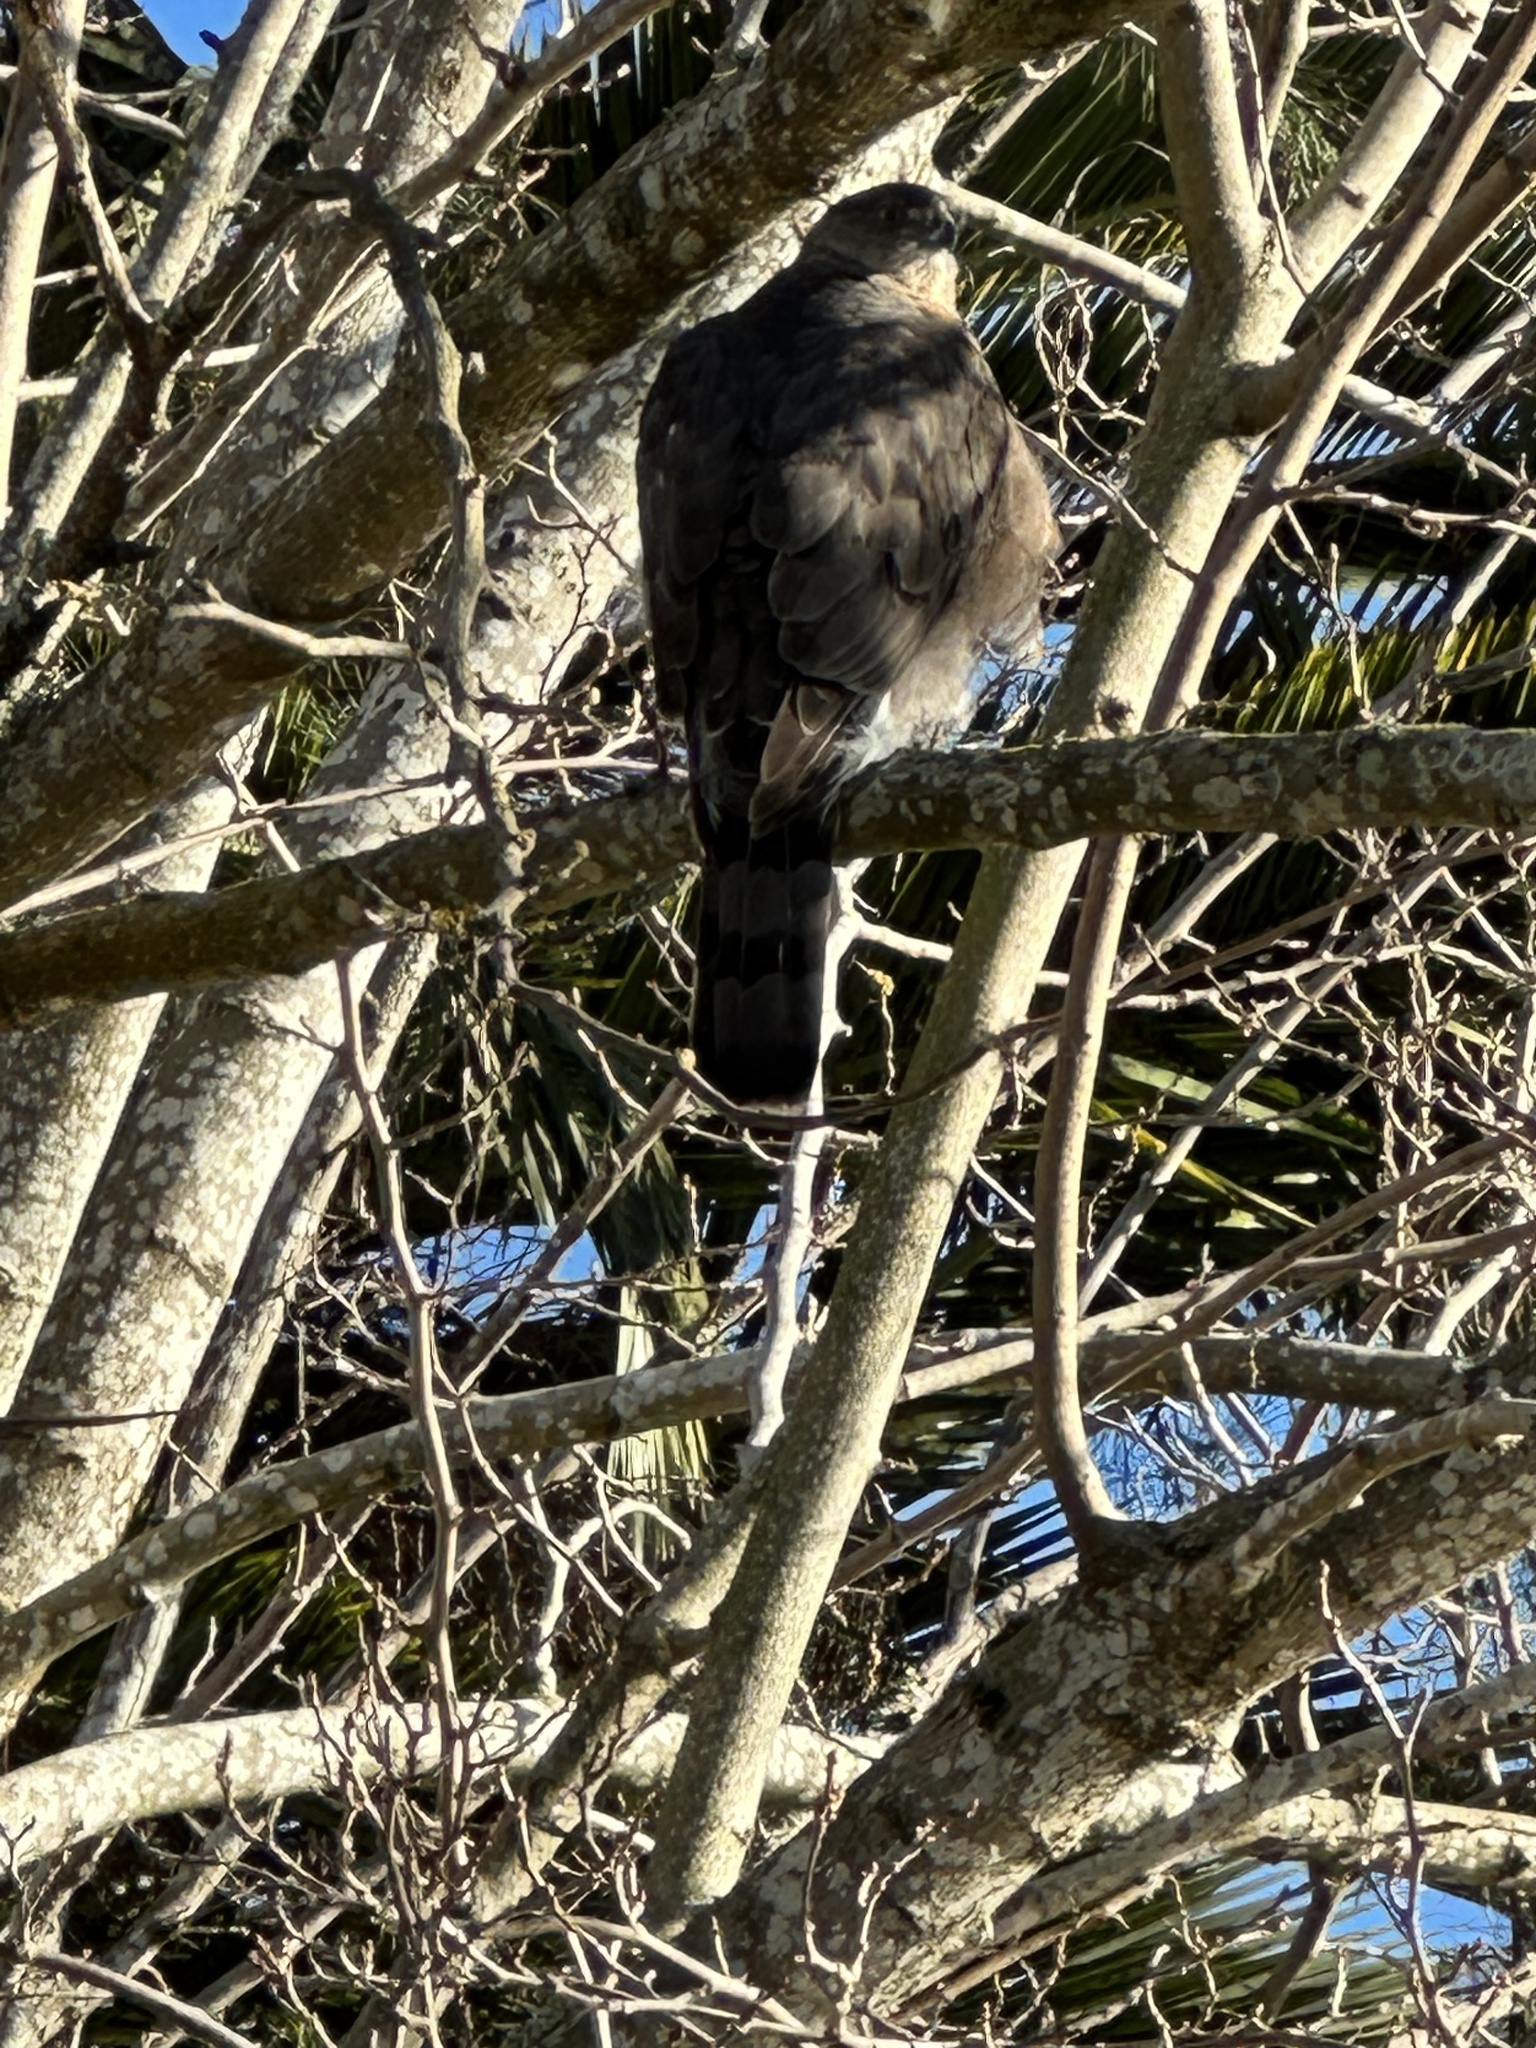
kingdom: Animalia
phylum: Chordata
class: Aves
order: Accipitriformes
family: Accipitridae
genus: Accipiter
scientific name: Accipiter cooperii
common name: Cooper's hawk
